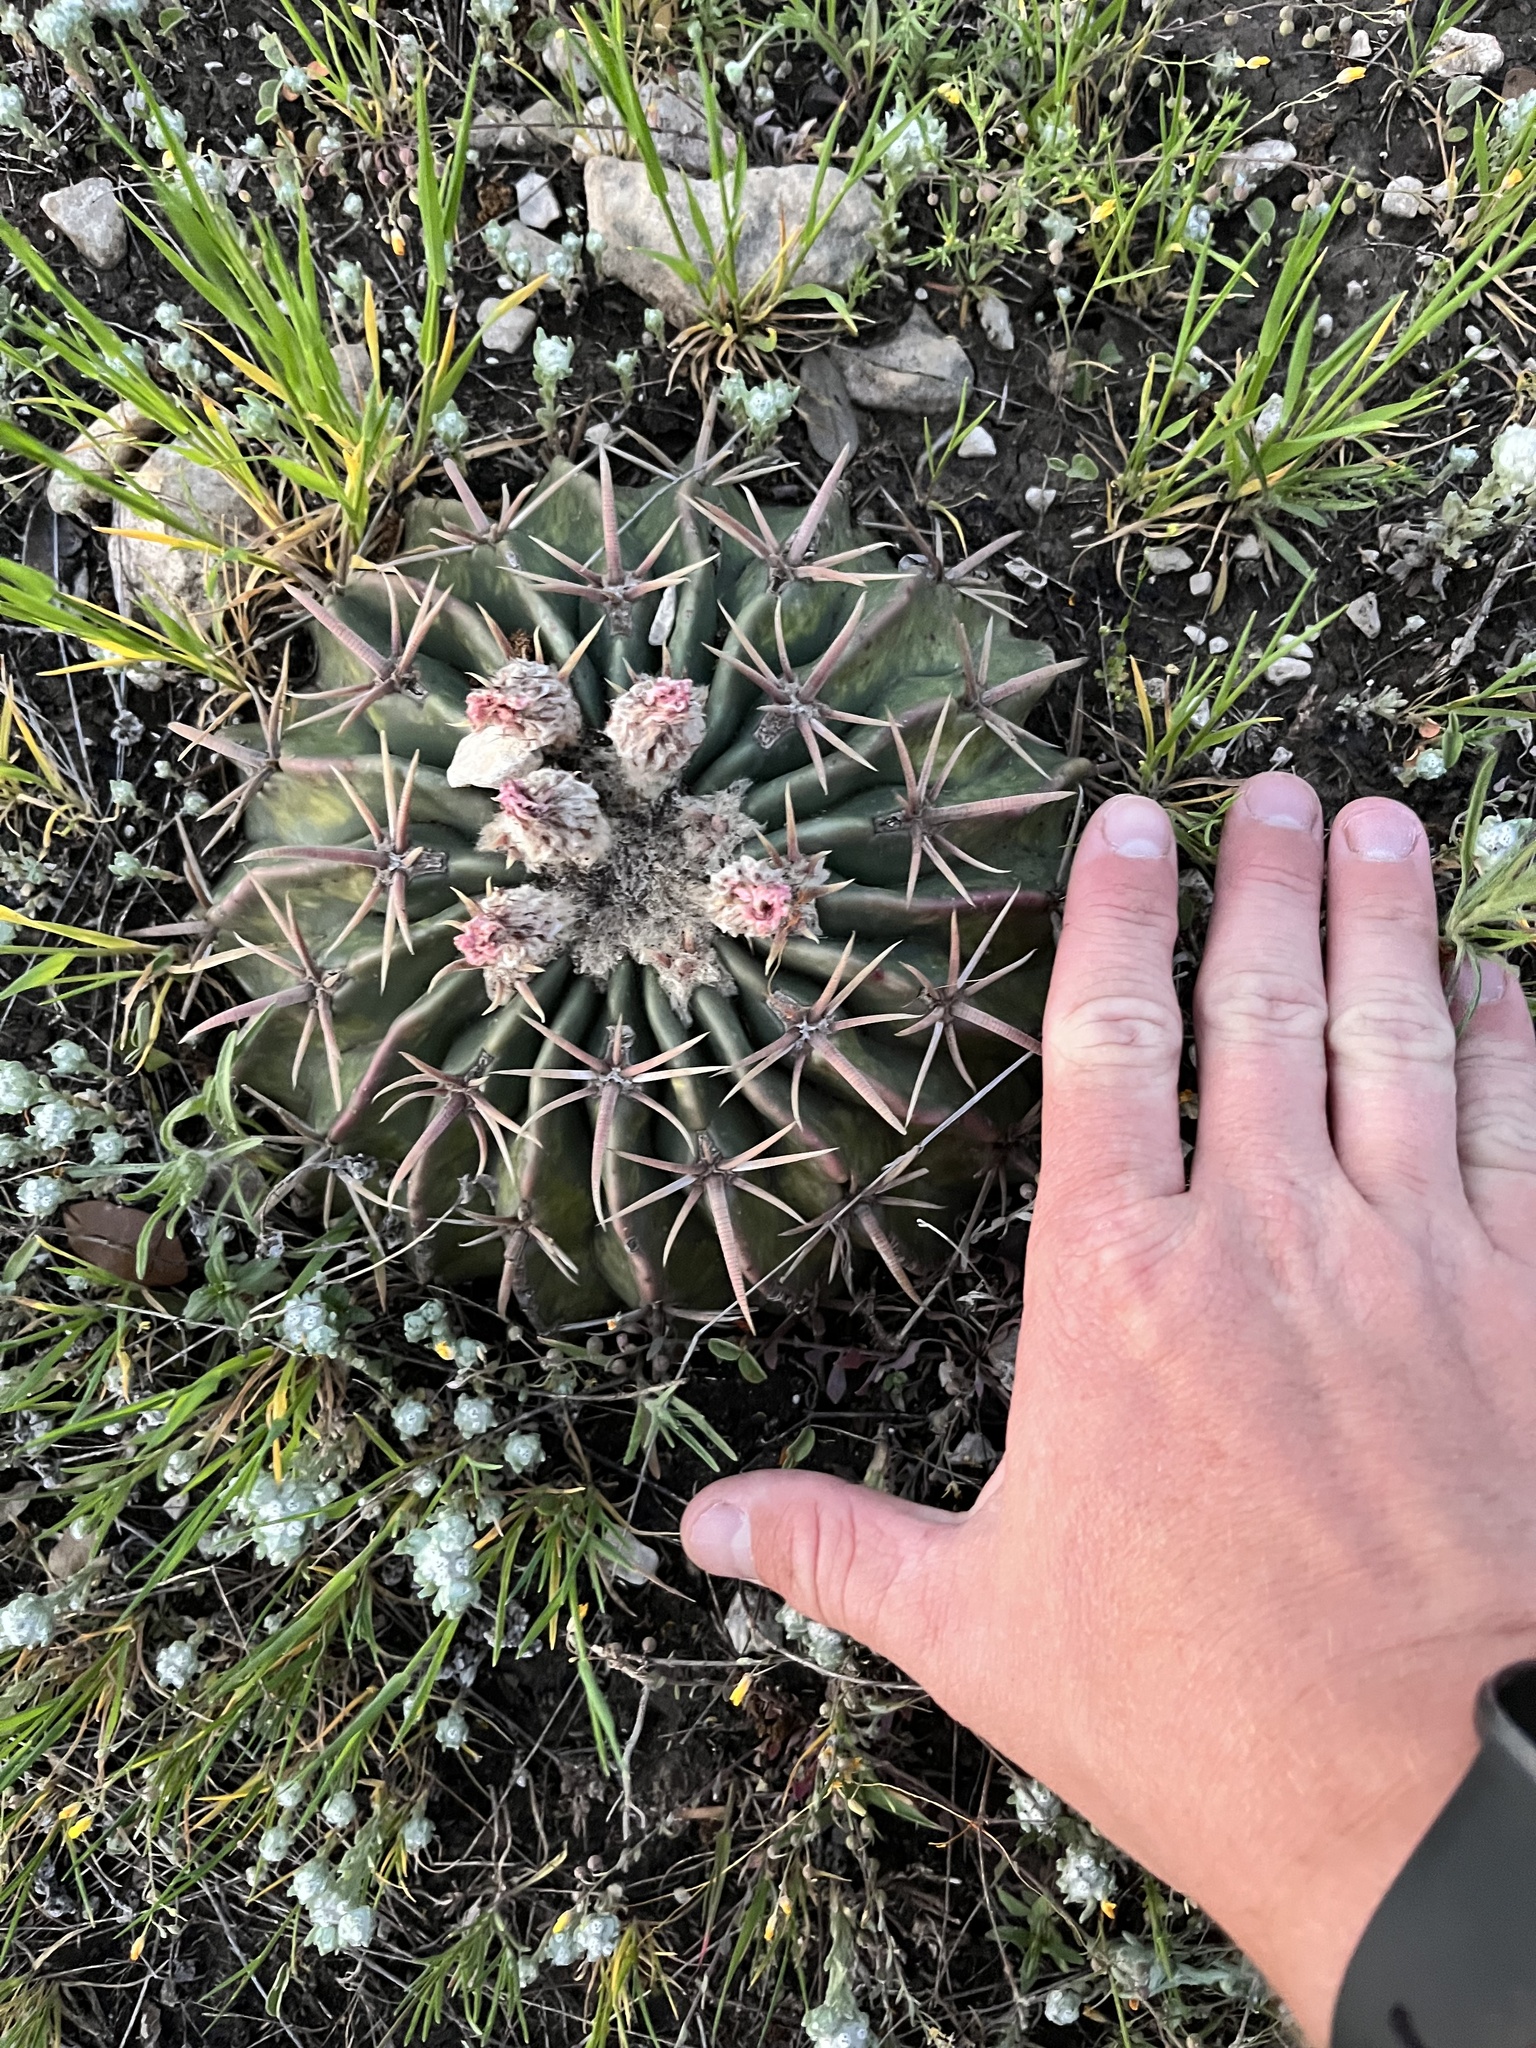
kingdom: Plantae
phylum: Tracheophyta
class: Magnoliopsida
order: Caryophyllales
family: Cactaceae
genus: Echinocactus
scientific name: Echinocactus texensis
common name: Devil's pincushion
